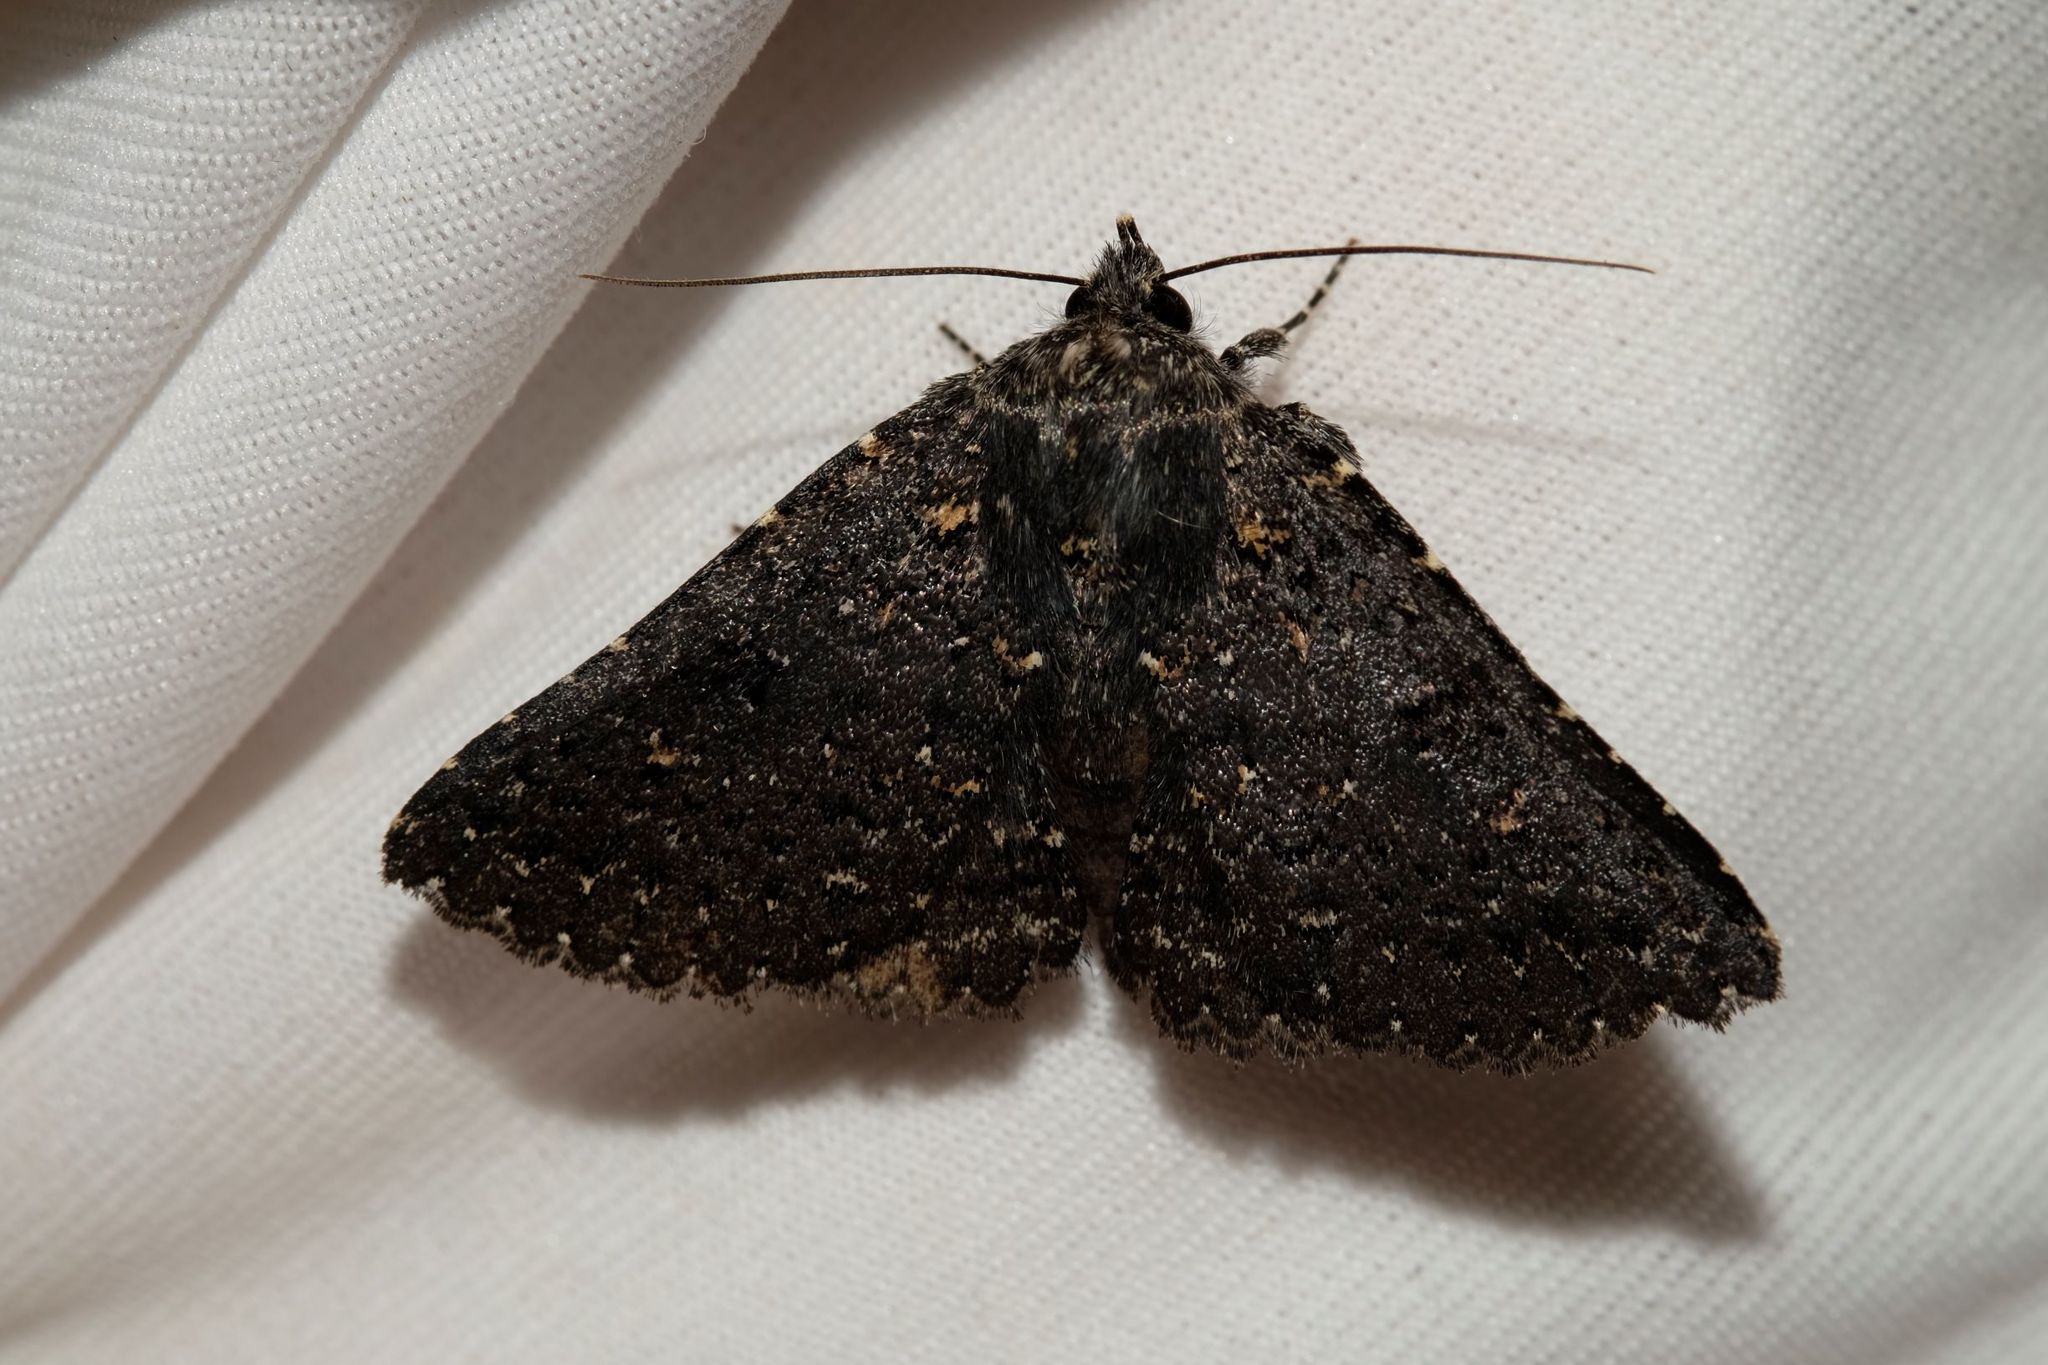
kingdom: Animalia
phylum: Arthropoda
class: Insecta
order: Lepidoptera
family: Erebidae
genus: Praxis
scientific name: Praxis edwardsii
